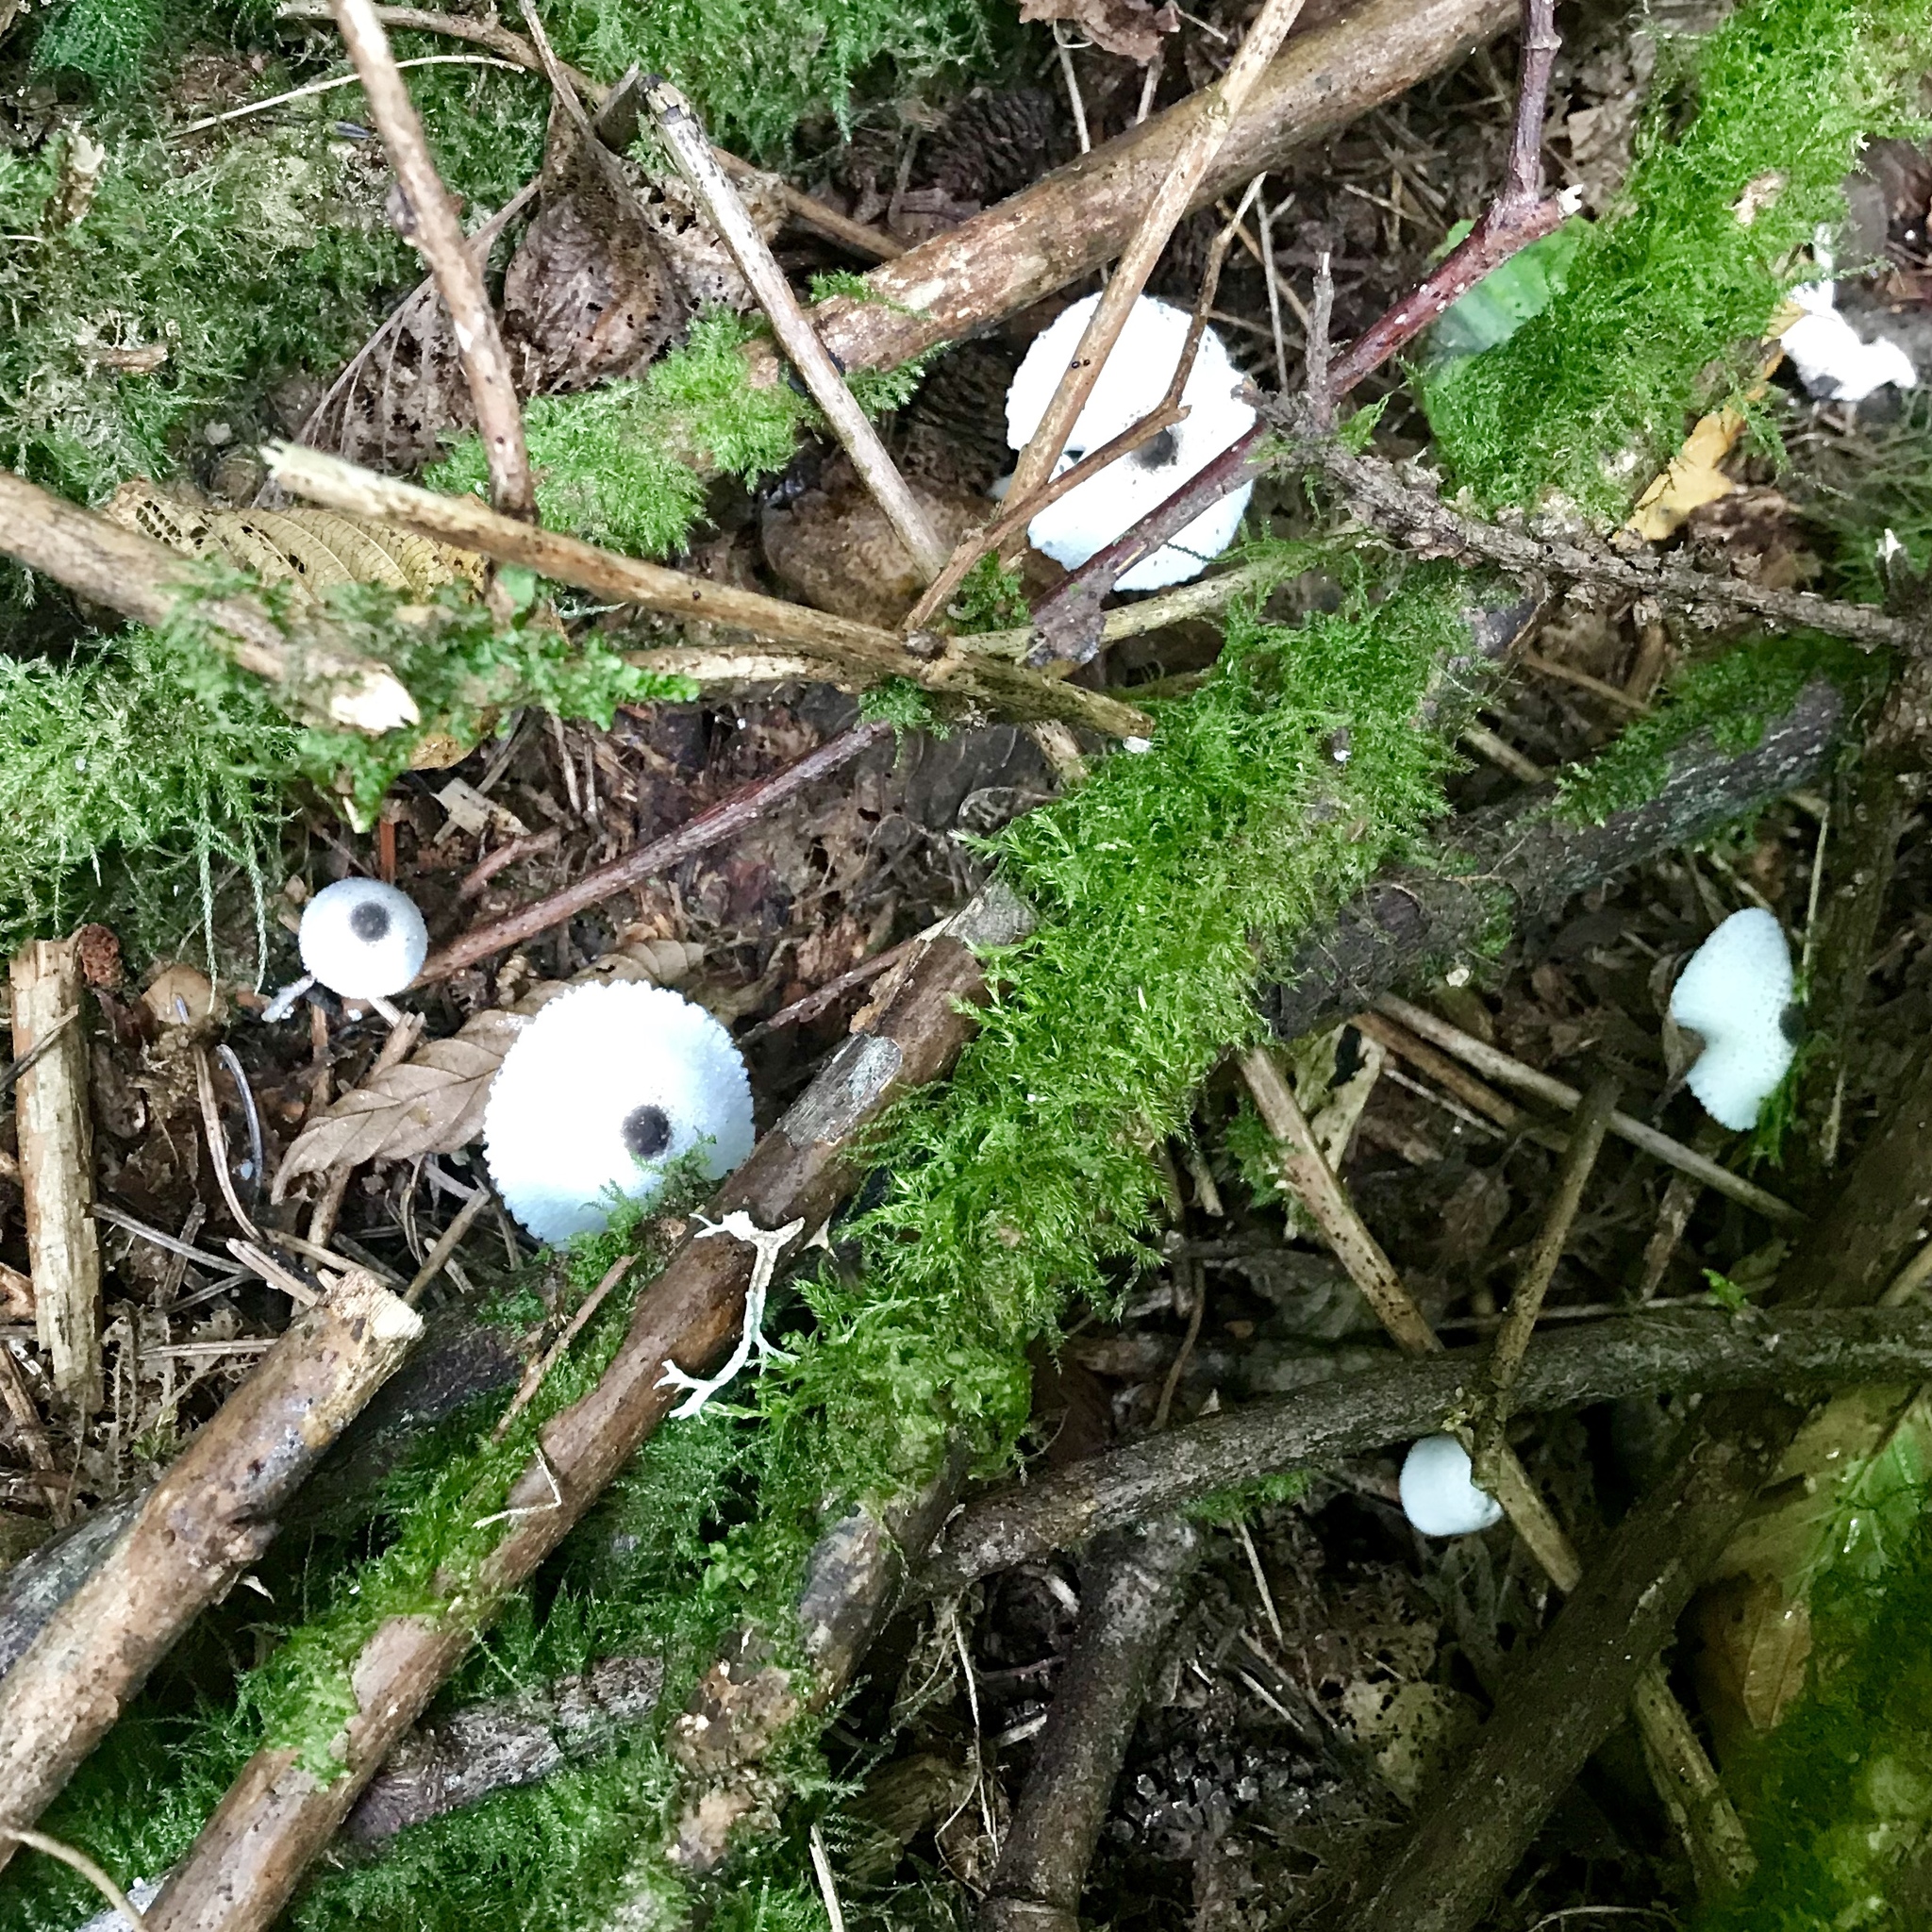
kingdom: Fungi
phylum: Basidiomycota
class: Agaricomycetes
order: Agaricales
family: Agaricaceae
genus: Leucocoprinus
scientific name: Leucocoprinus brebissonii
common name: Skullcap dapperling
